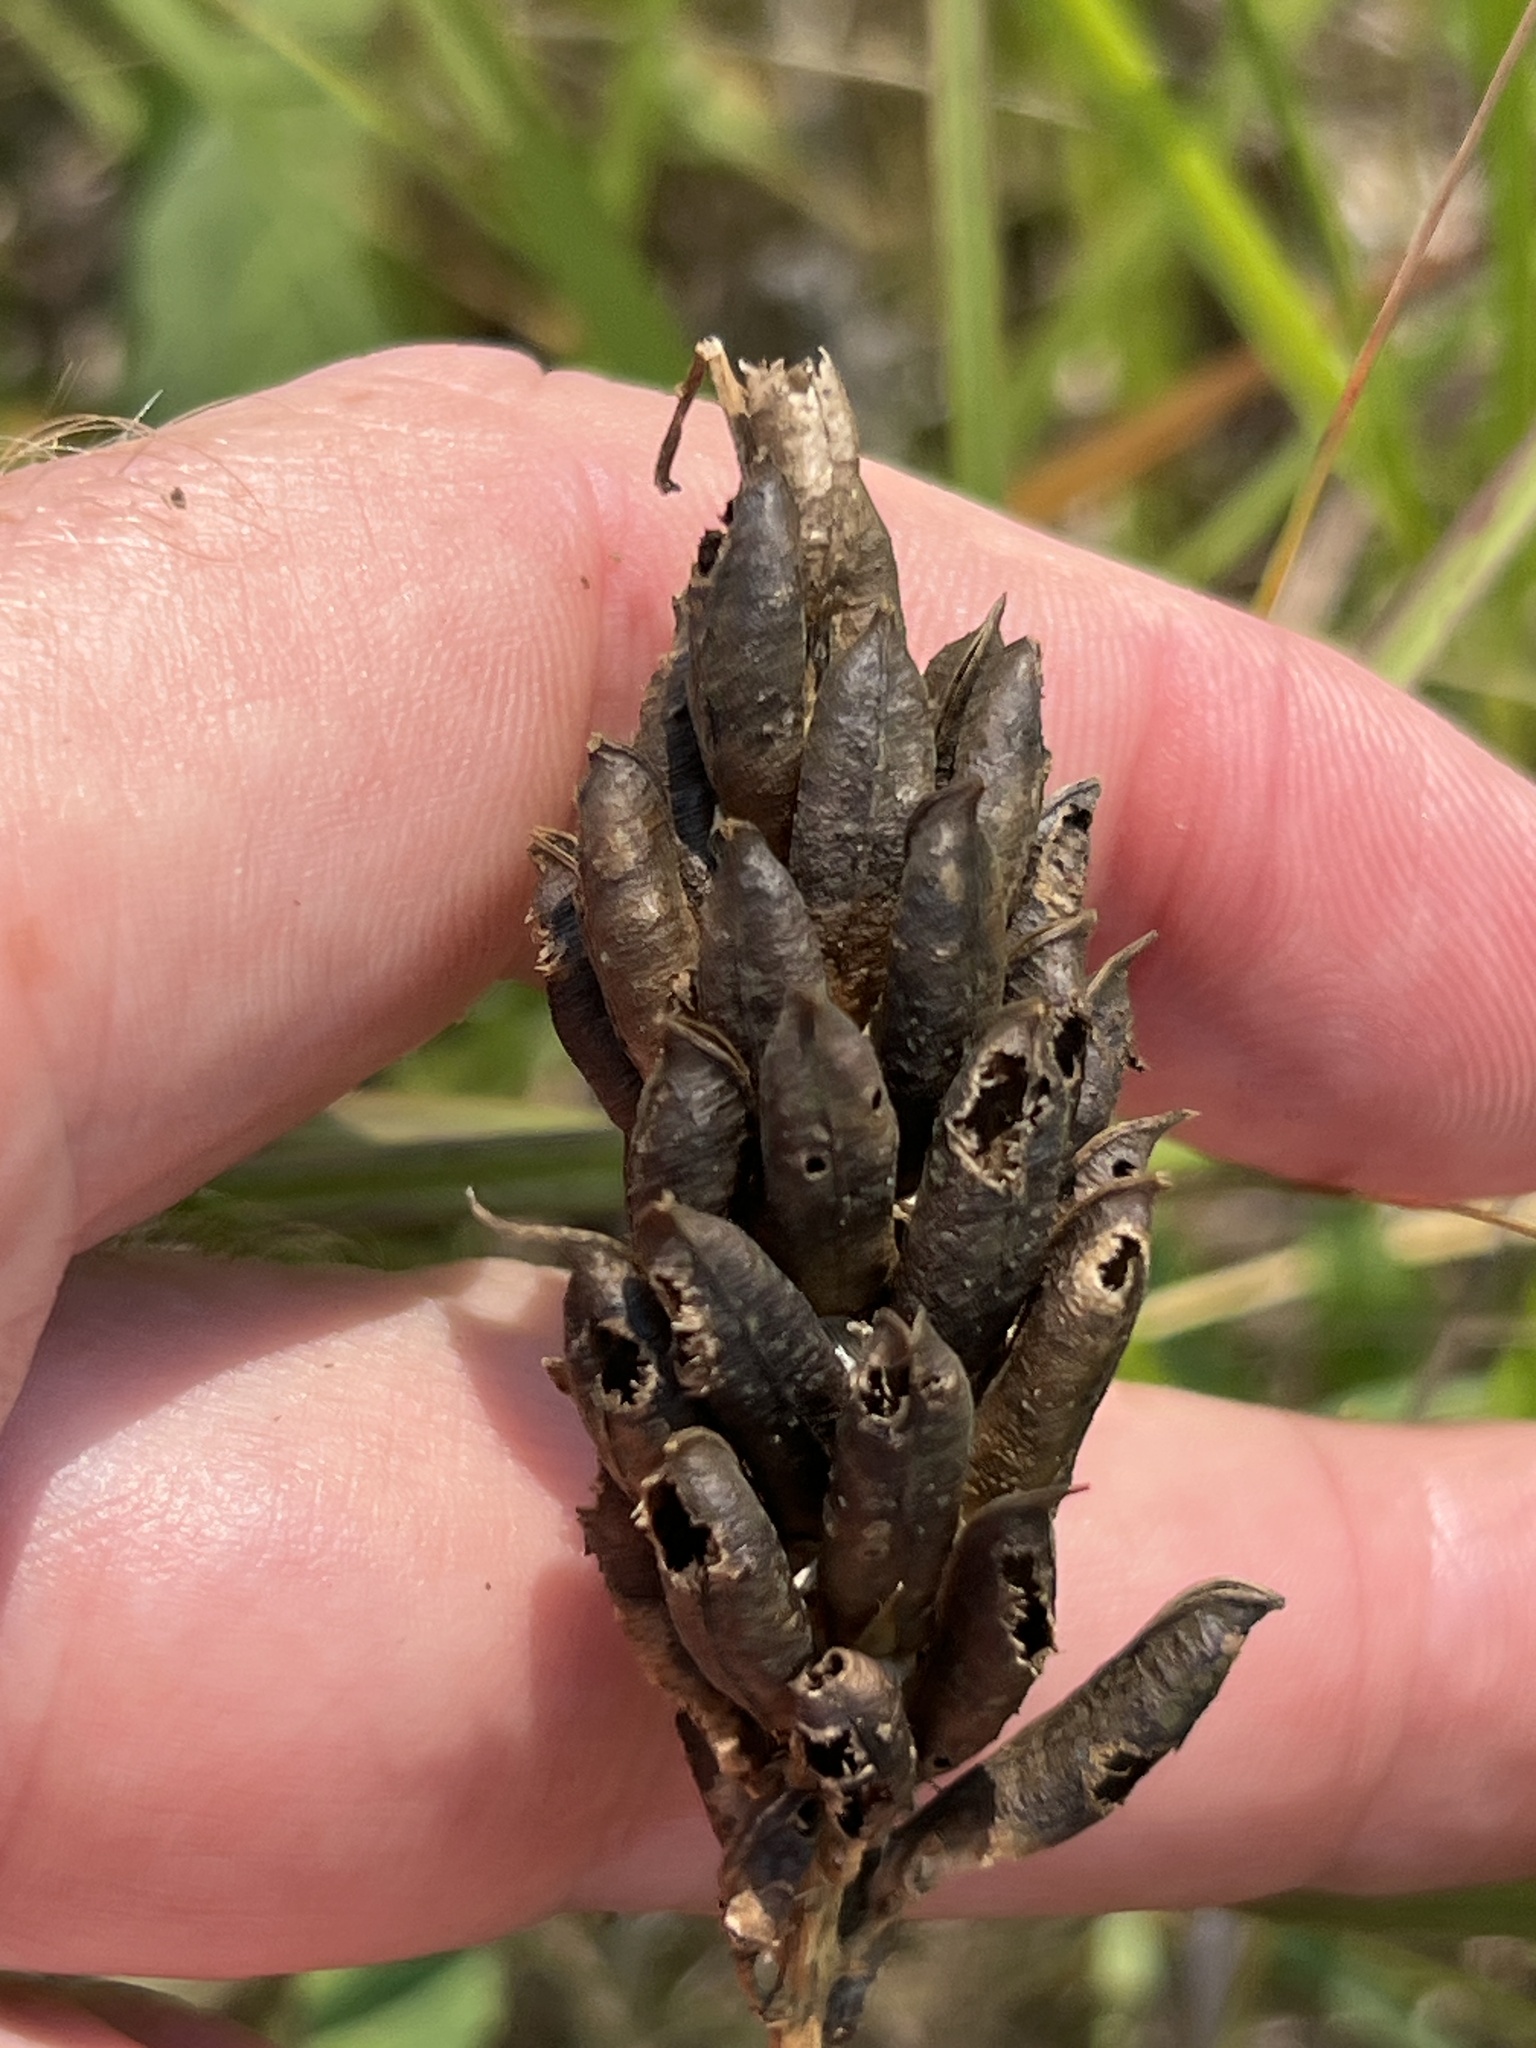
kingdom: Plantae
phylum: Tracheophyta
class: Magnoliopsida
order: Fabales
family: Fabaceae
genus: Astragalus
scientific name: Astragalus canadensis
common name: Canada milk-vetch
